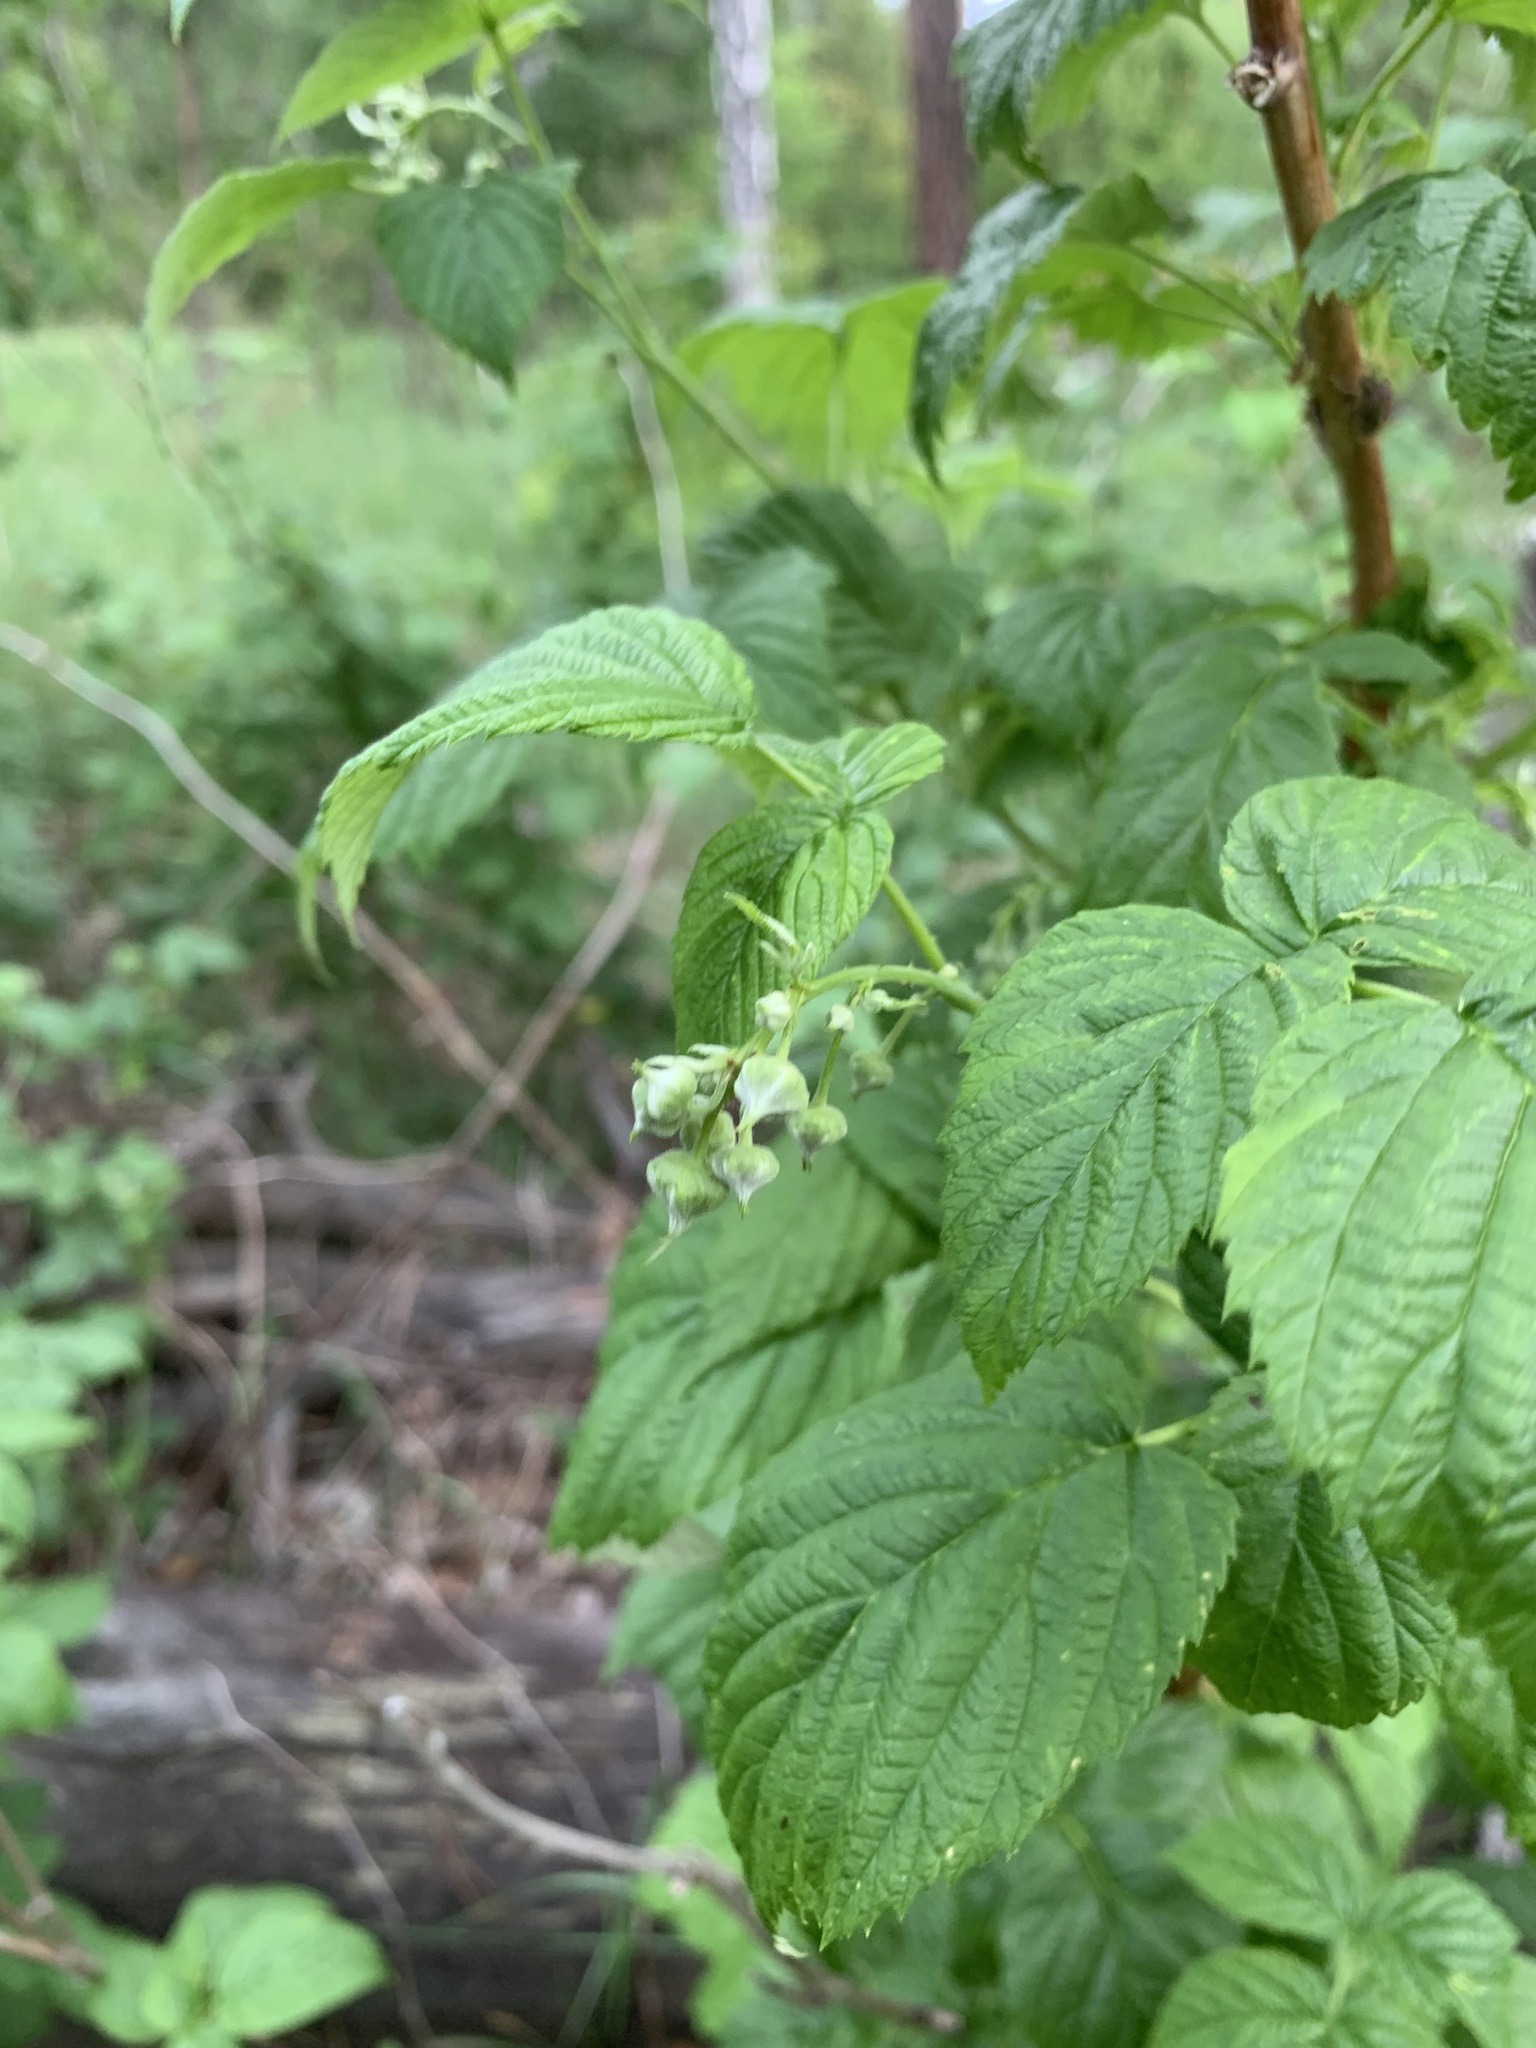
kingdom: Plantae
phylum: Tracheophyta
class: Magnoliopsida
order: Rosales
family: Rosaceae
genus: Rubus
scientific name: Rubus idaeus
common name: Raspberry
